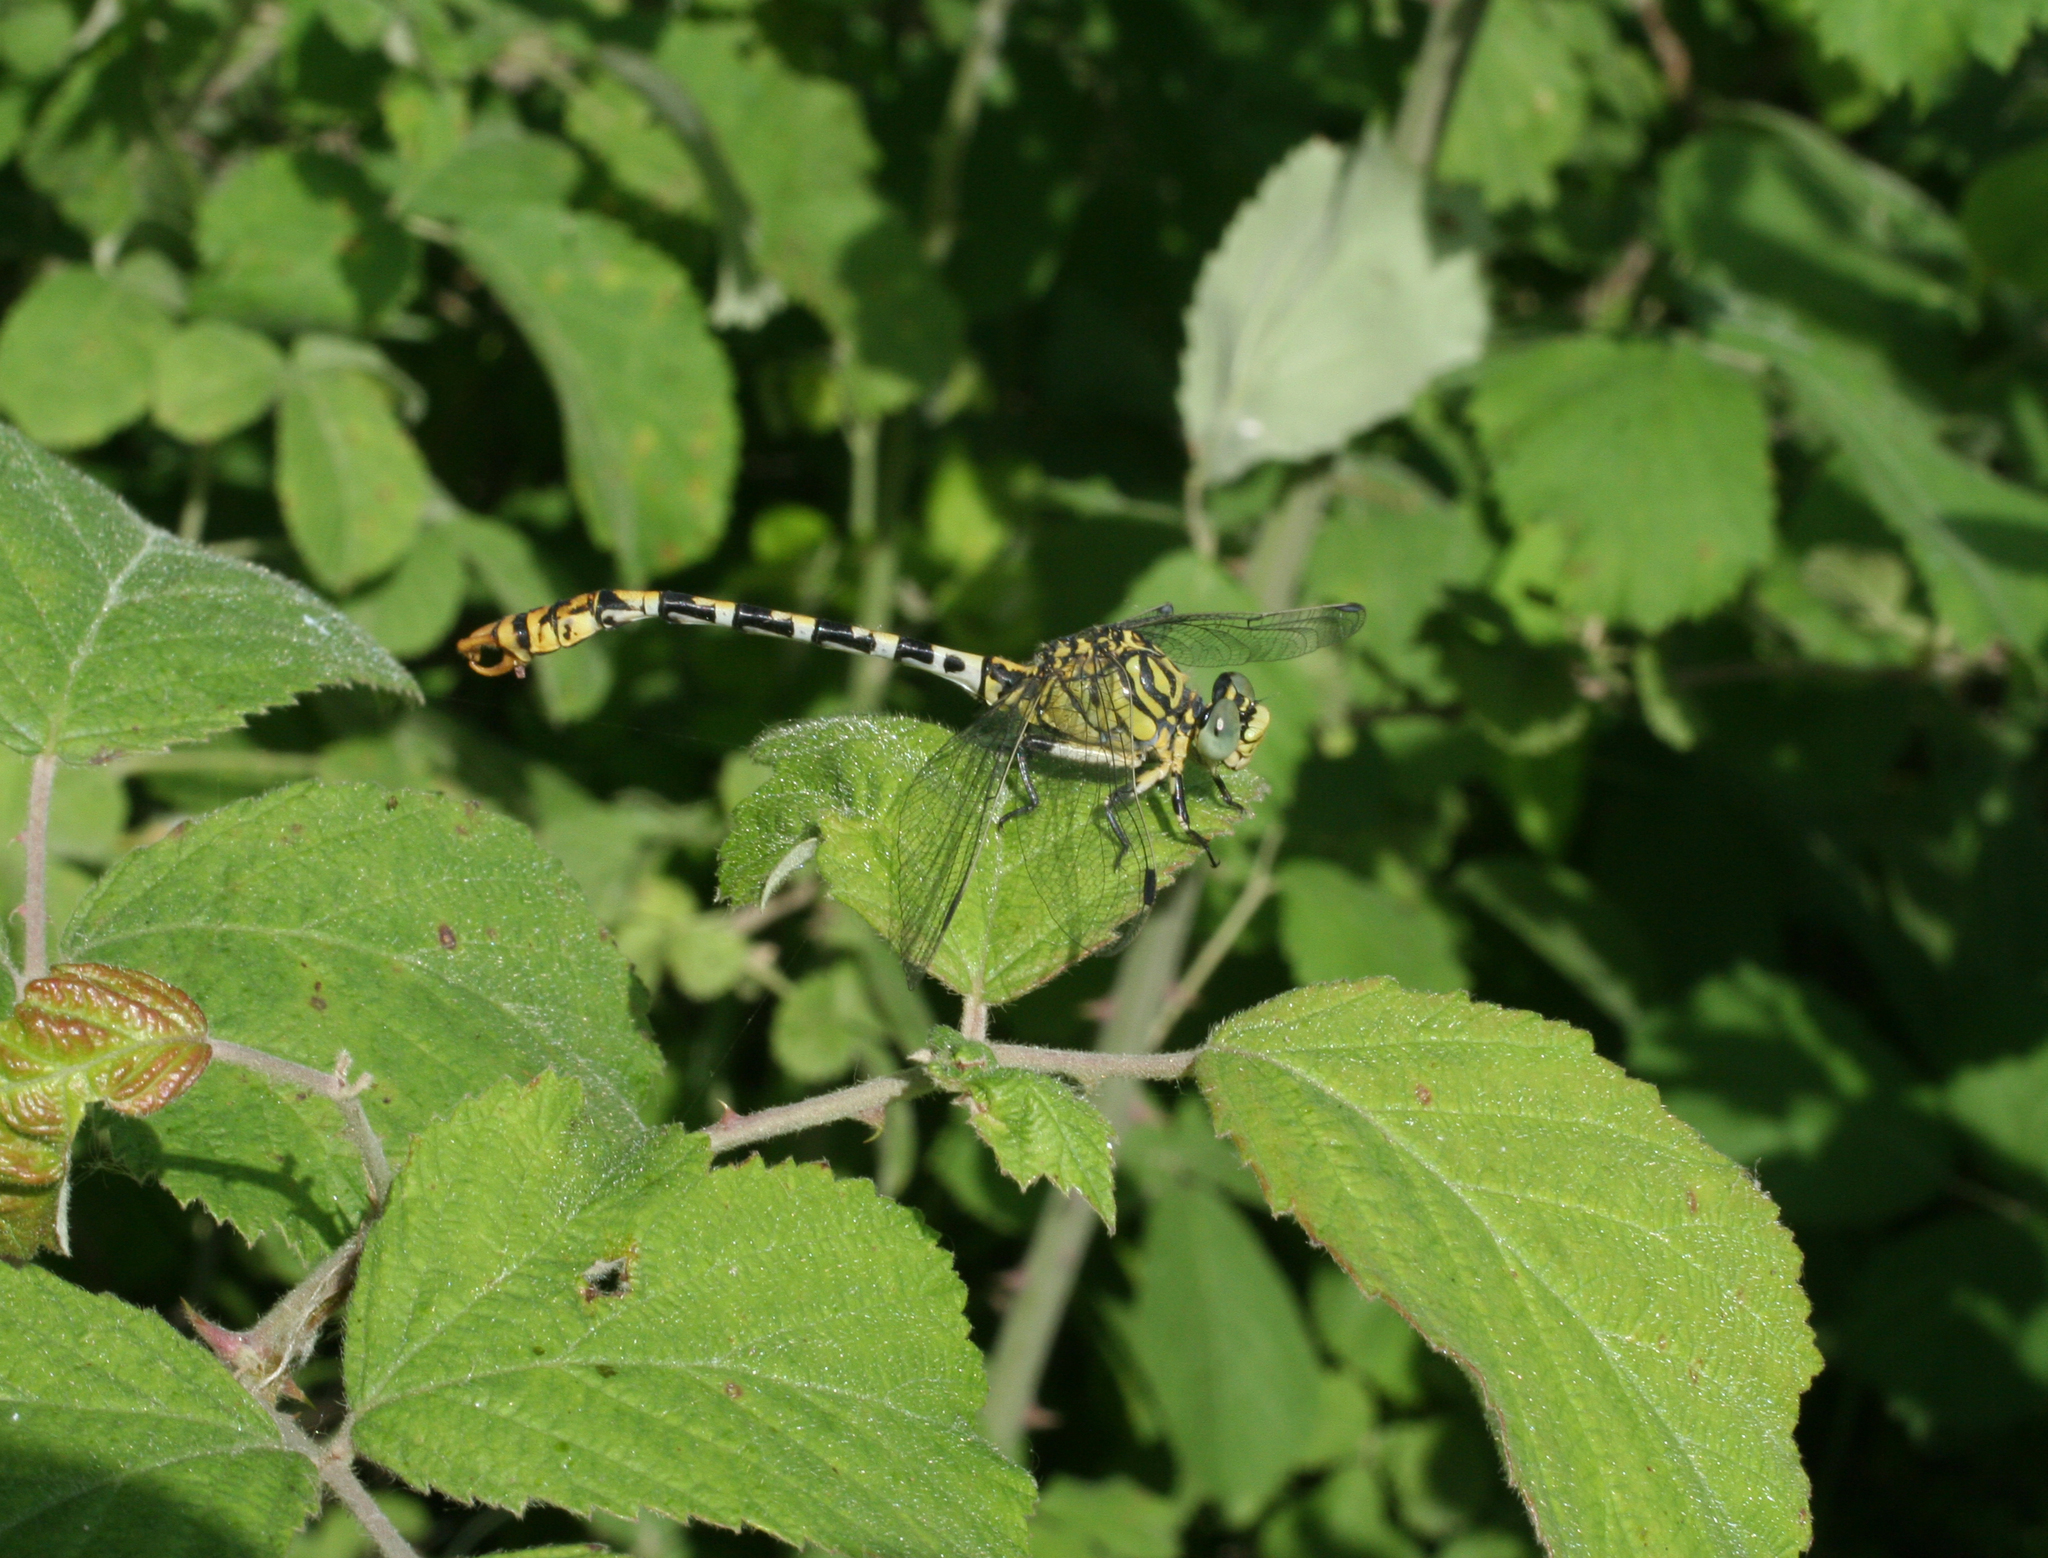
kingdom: Animalia
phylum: Arthropoda
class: Insecta
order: Odonata
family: Gomphidae
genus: Onychogomphus
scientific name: Onychogomphus forcipatus
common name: Small pincertail
